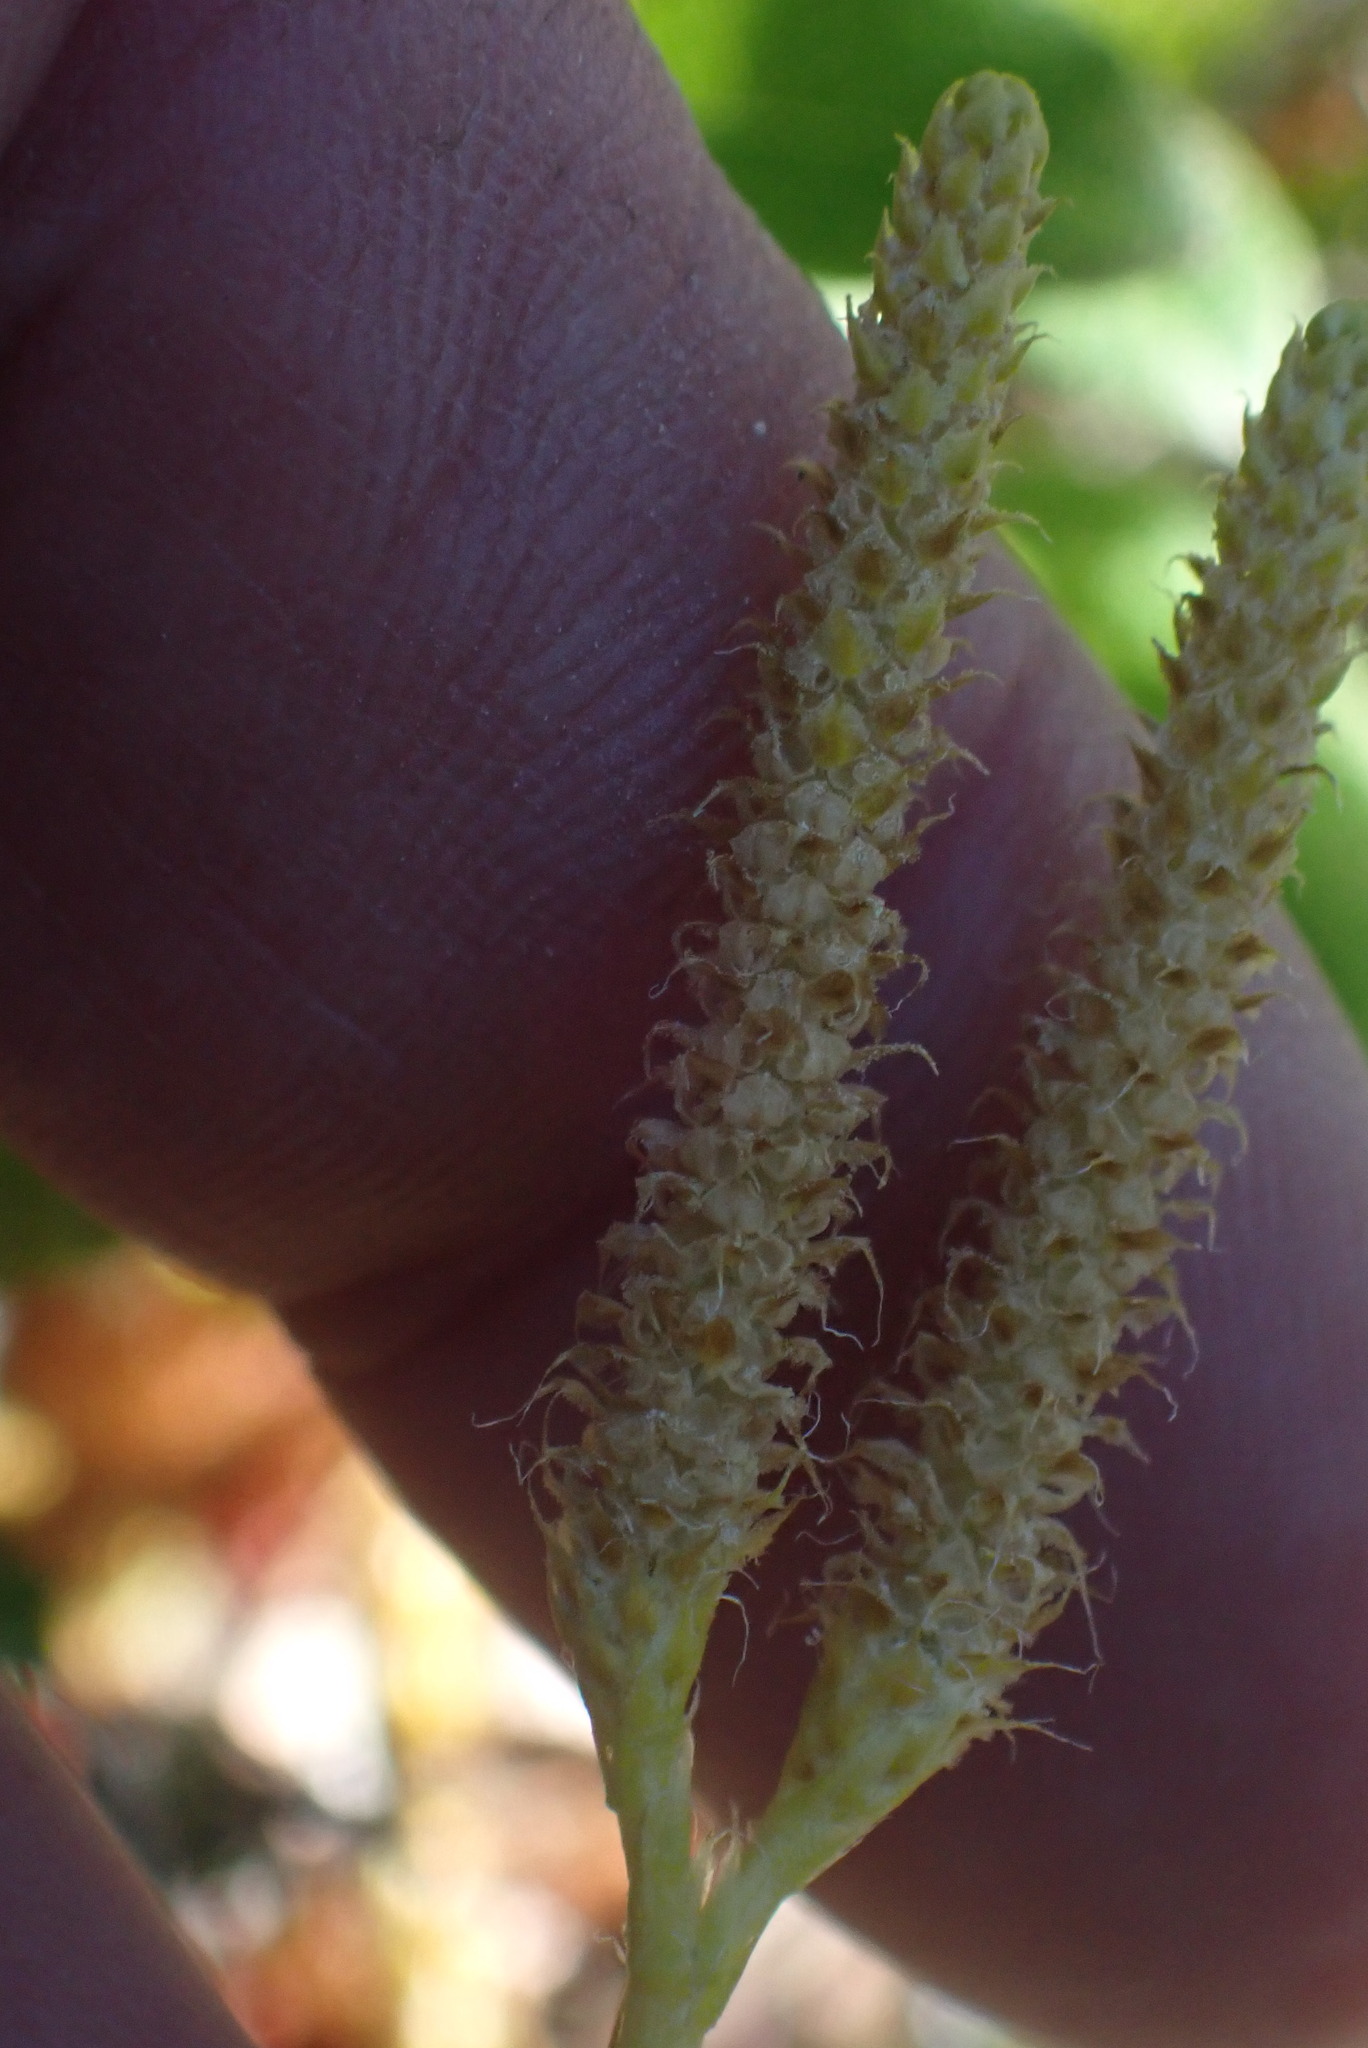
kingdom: Plantae
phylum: Tracheophyta
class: Lycopodiopsida
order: Lycopodiales
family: Lycopodiaceae
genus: Lycopodium
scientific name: Lycopodium clavatum
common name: Stag's-horn clubmoss
